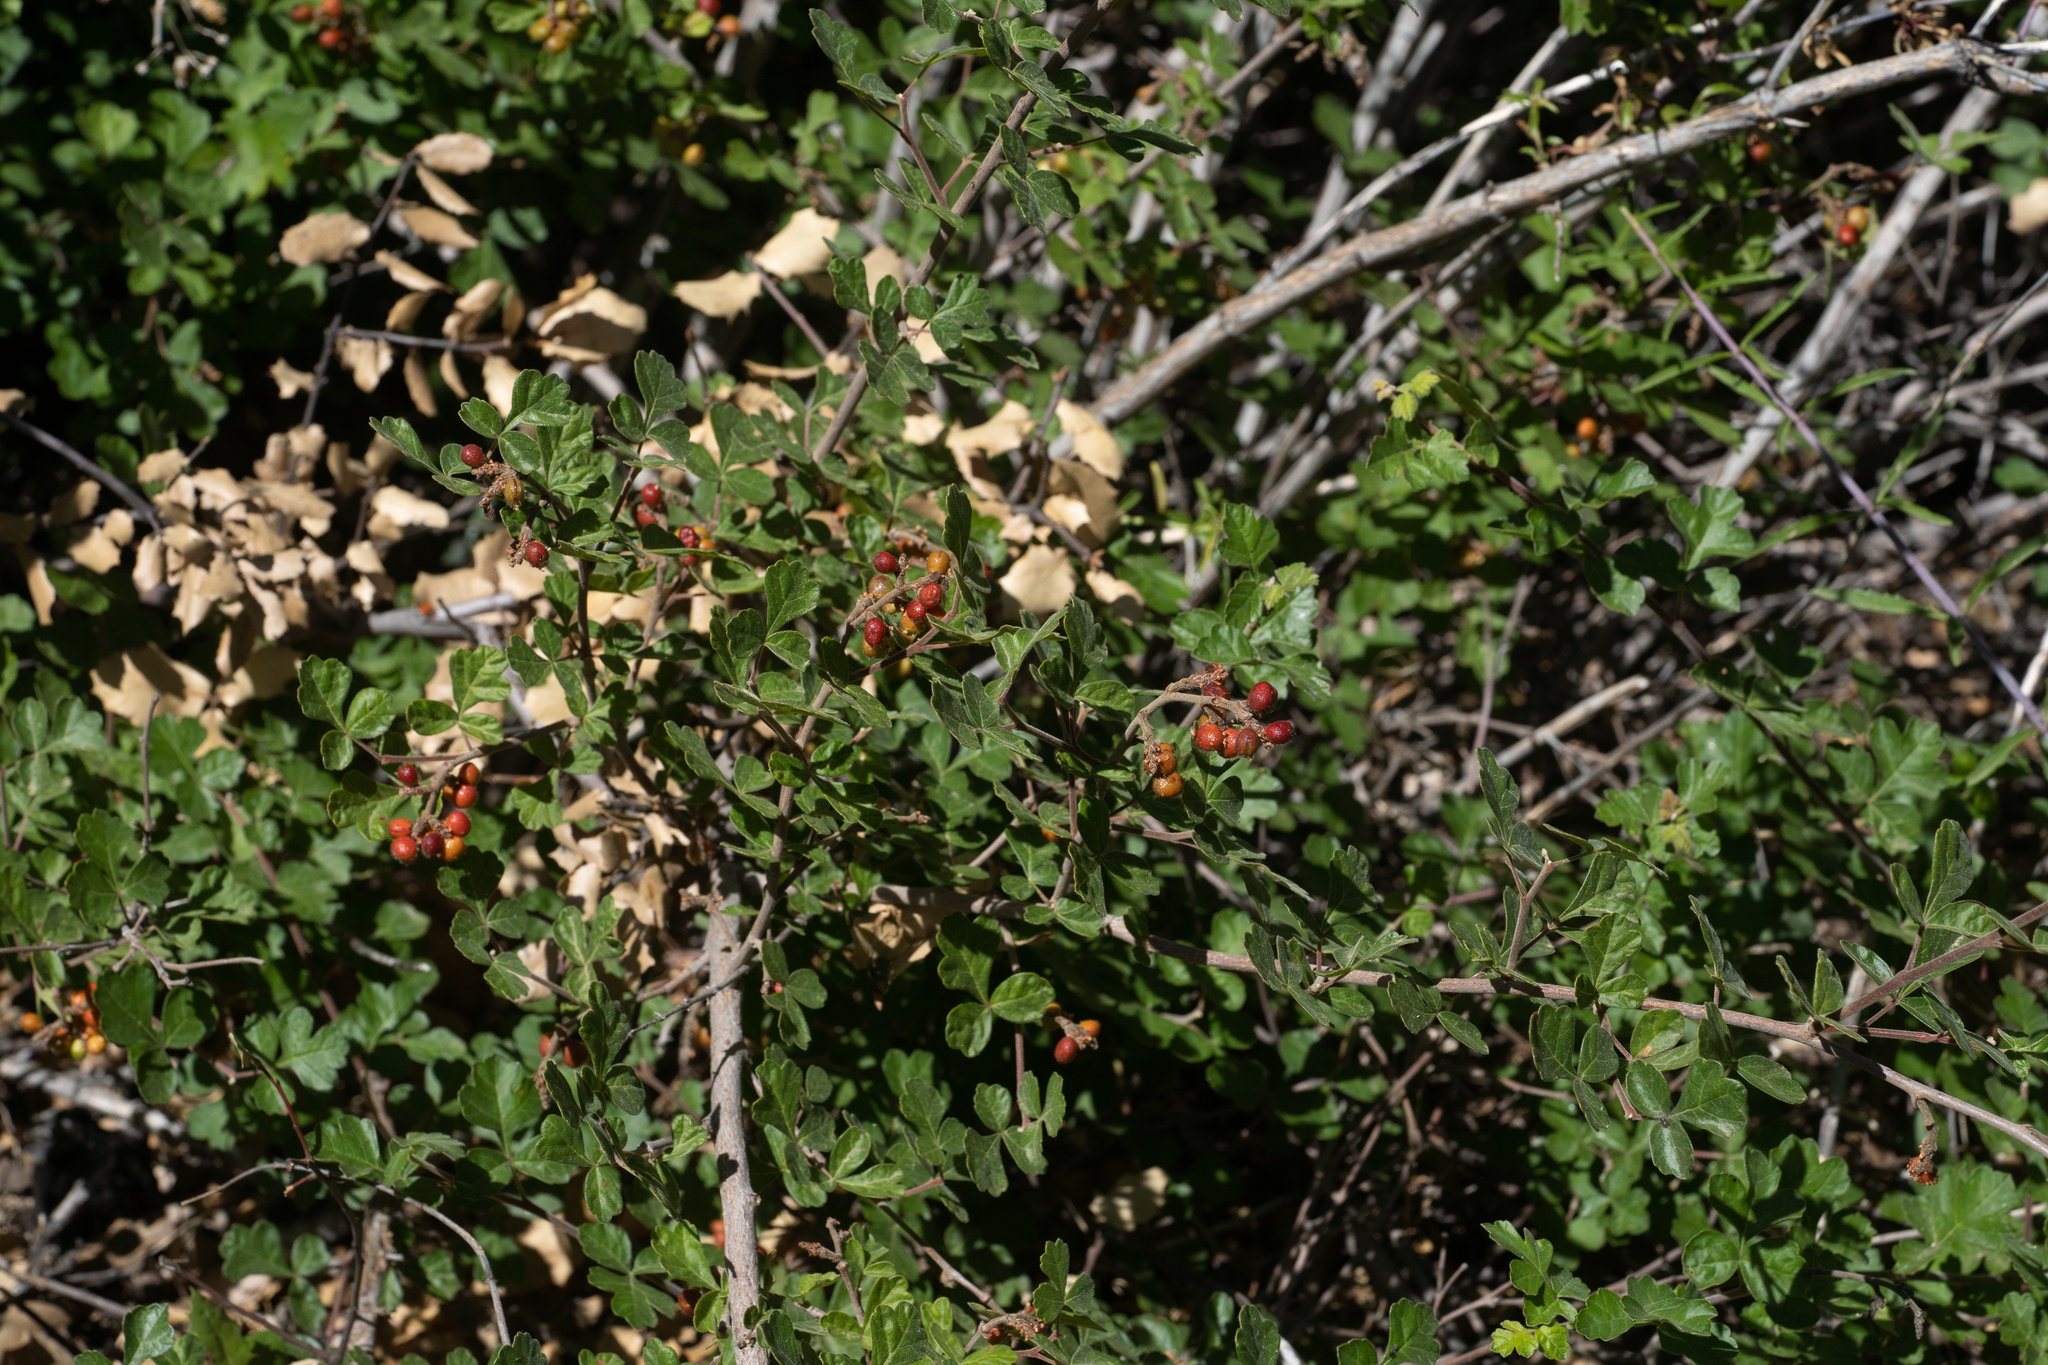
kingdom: Plantae
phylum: Tracheophyta
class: Magnoliopsida
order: Sapindales
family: Anacardiaceae
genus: Rhus
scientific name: Rhus aromatica
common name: Aromatic sumac
